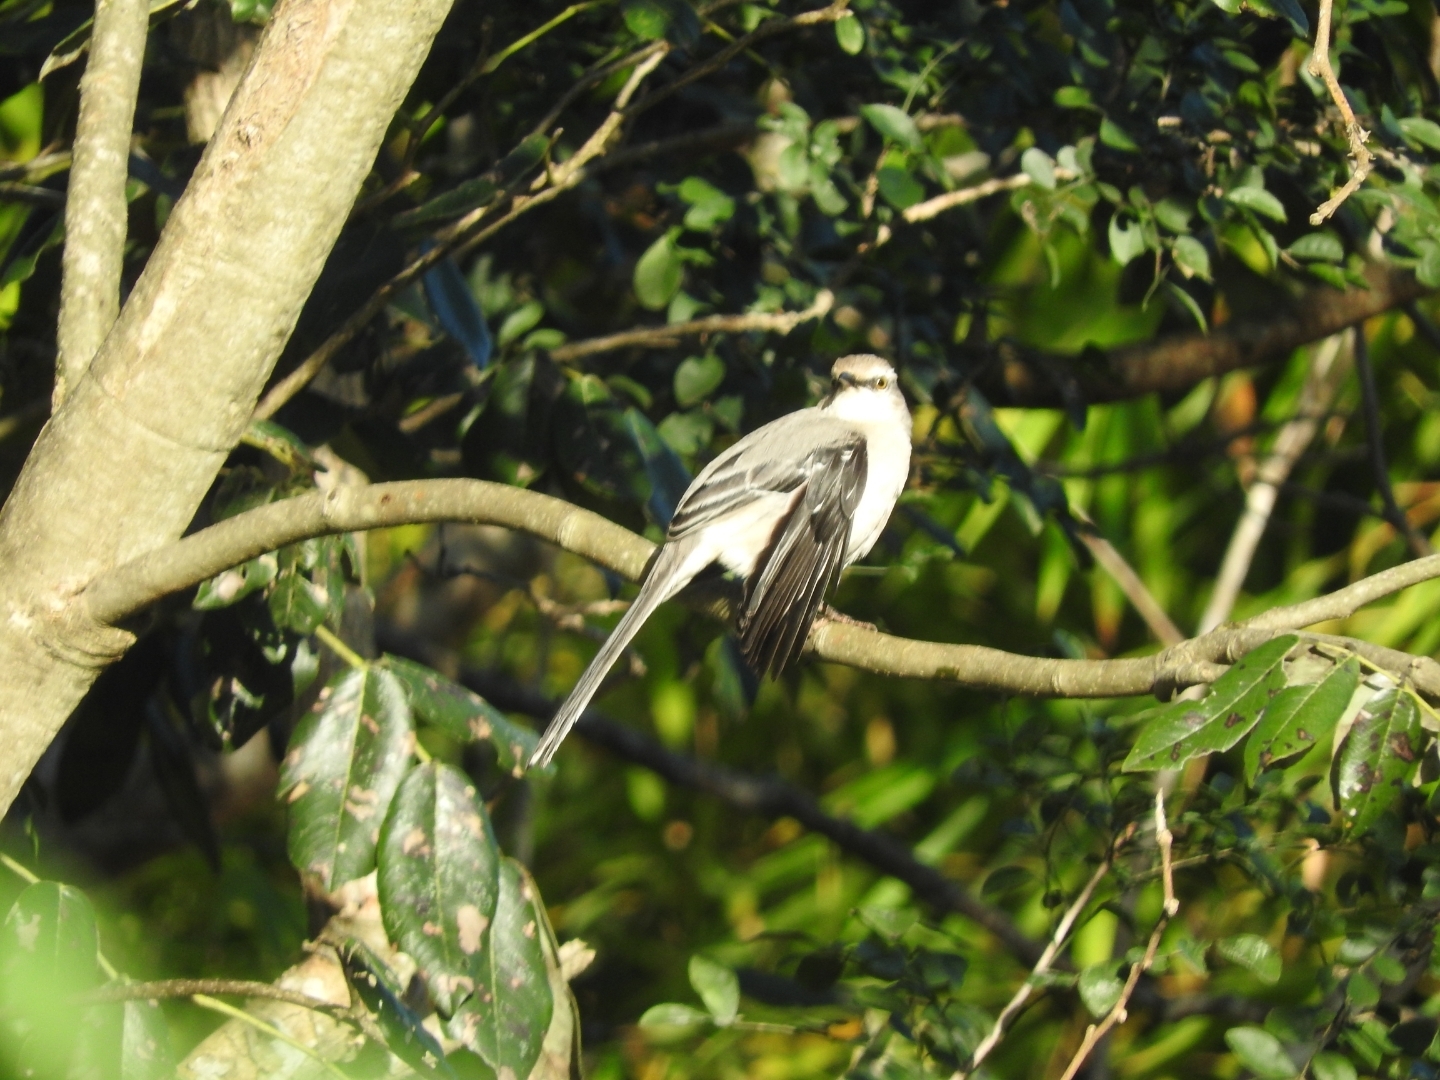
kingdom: Animalia
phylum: Chordata
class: Aves
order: Passeriformes
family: Mimidae
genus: Mimus
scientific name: Mimus gilvus
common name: Tropical mockingbird
